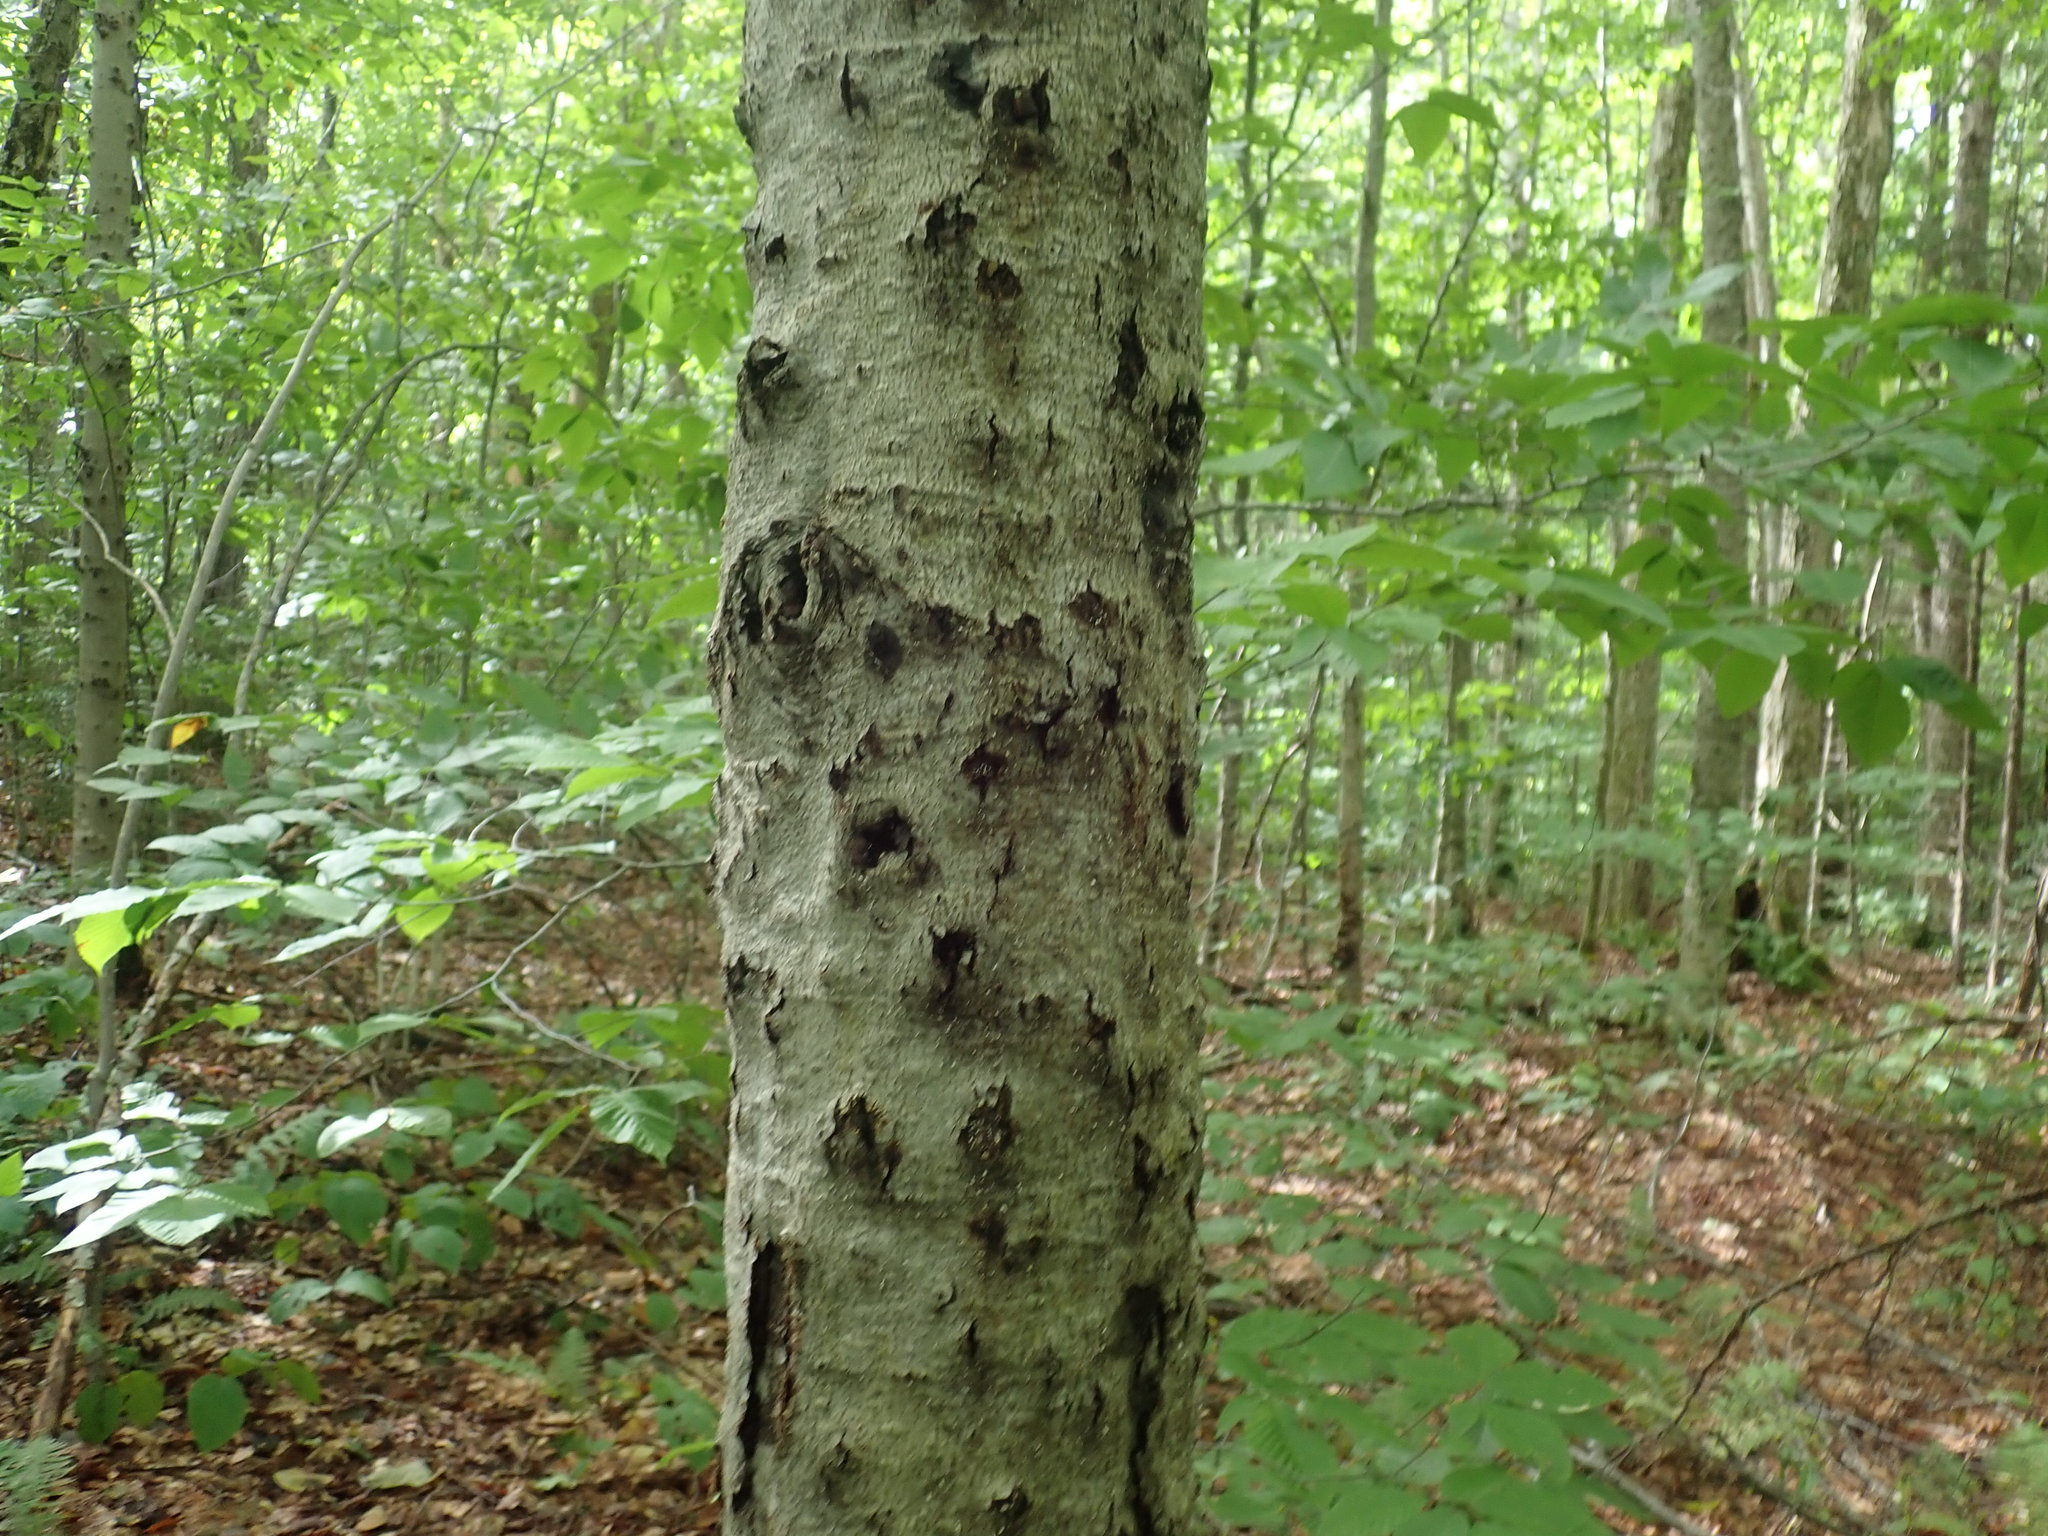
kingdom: Fungi
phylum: Ascomycota
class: Sordariomycetes
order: Hypocreales
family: Nectriaceae
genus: Neonectria
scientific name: Neonectria faginata
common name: Beech bark canker
